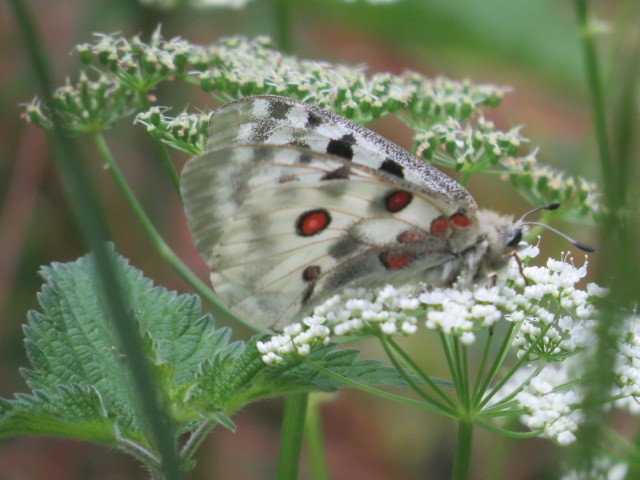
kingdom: Animalia
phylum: Arthropoda
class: Insecta
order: Lepidoptera
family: Papilionidae
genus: Parnassius
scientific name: Parnassius apollo
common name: Apollo
